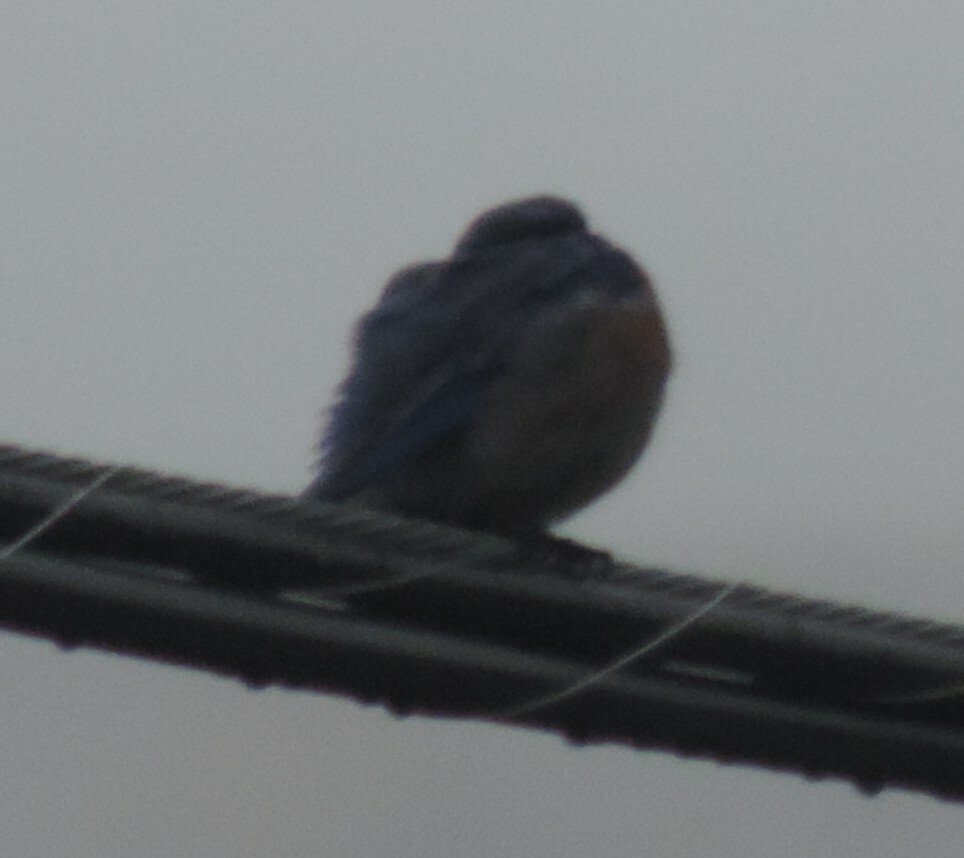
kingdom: Animalia
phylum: Chordata
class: Aves
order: Passeriformes
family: Turdidae
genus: Sialia
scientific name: Sialia mexicana
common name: Western bluebird
